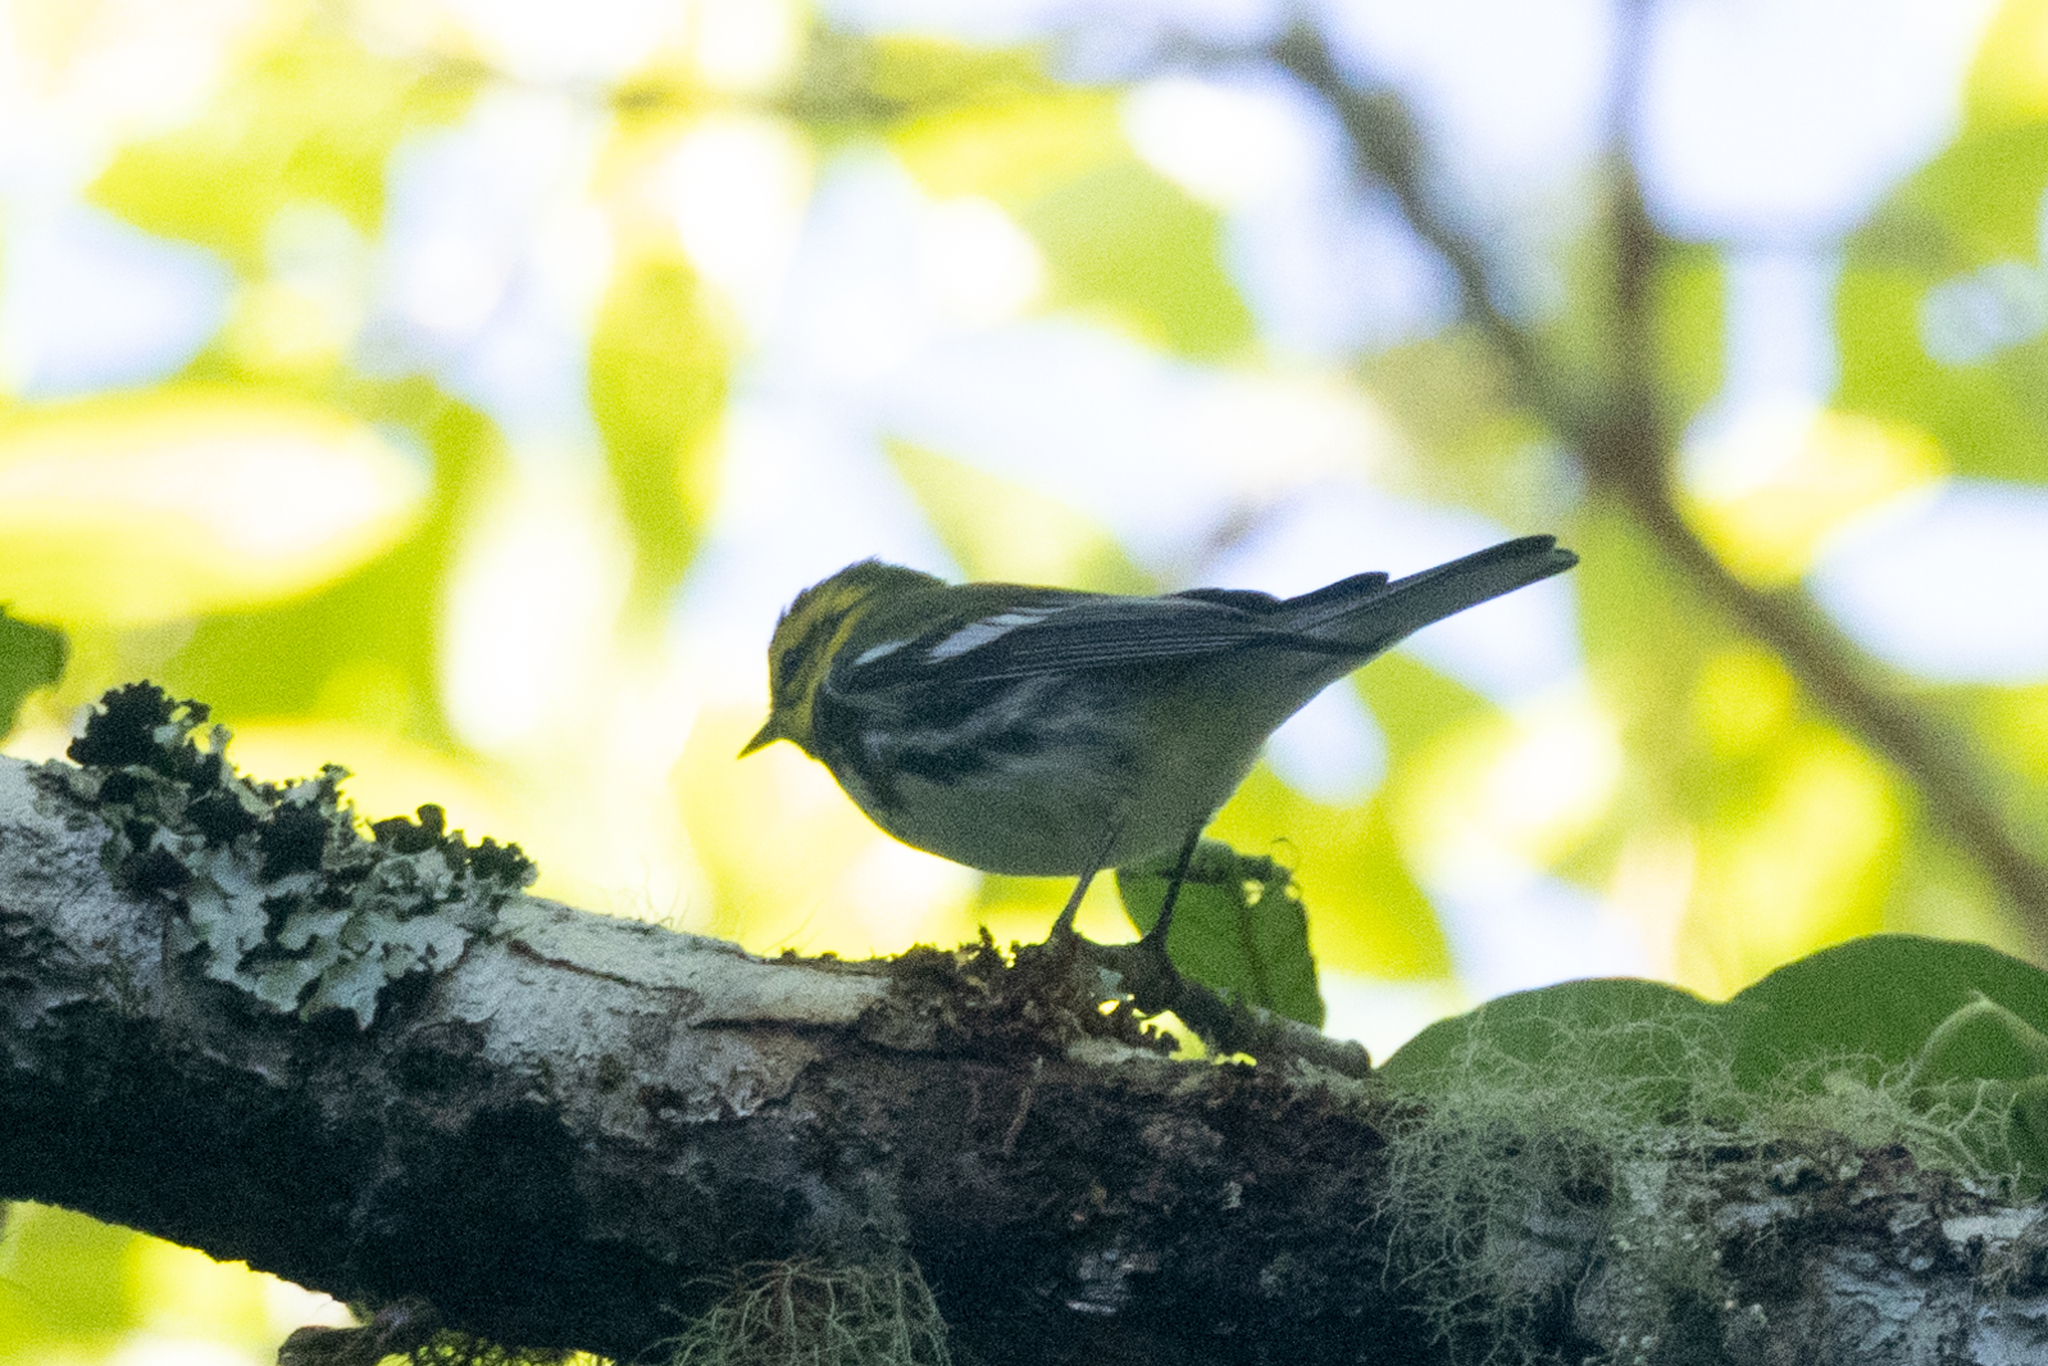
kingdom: Animalia
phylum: Chordata
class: Aves
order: Passeriformes
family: Parulidae
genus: Setophaga
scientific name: Setophaga virens
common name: Black-throated green warbler
